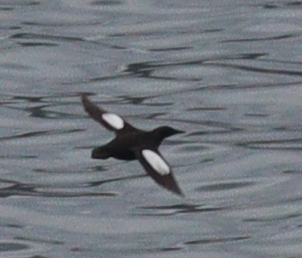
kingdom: Animalia
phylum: Chordata
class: Aves
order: Charadriiformes
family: Alcidae
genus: Cepphus
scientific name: Cepphus grylle
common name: Black guillemot
